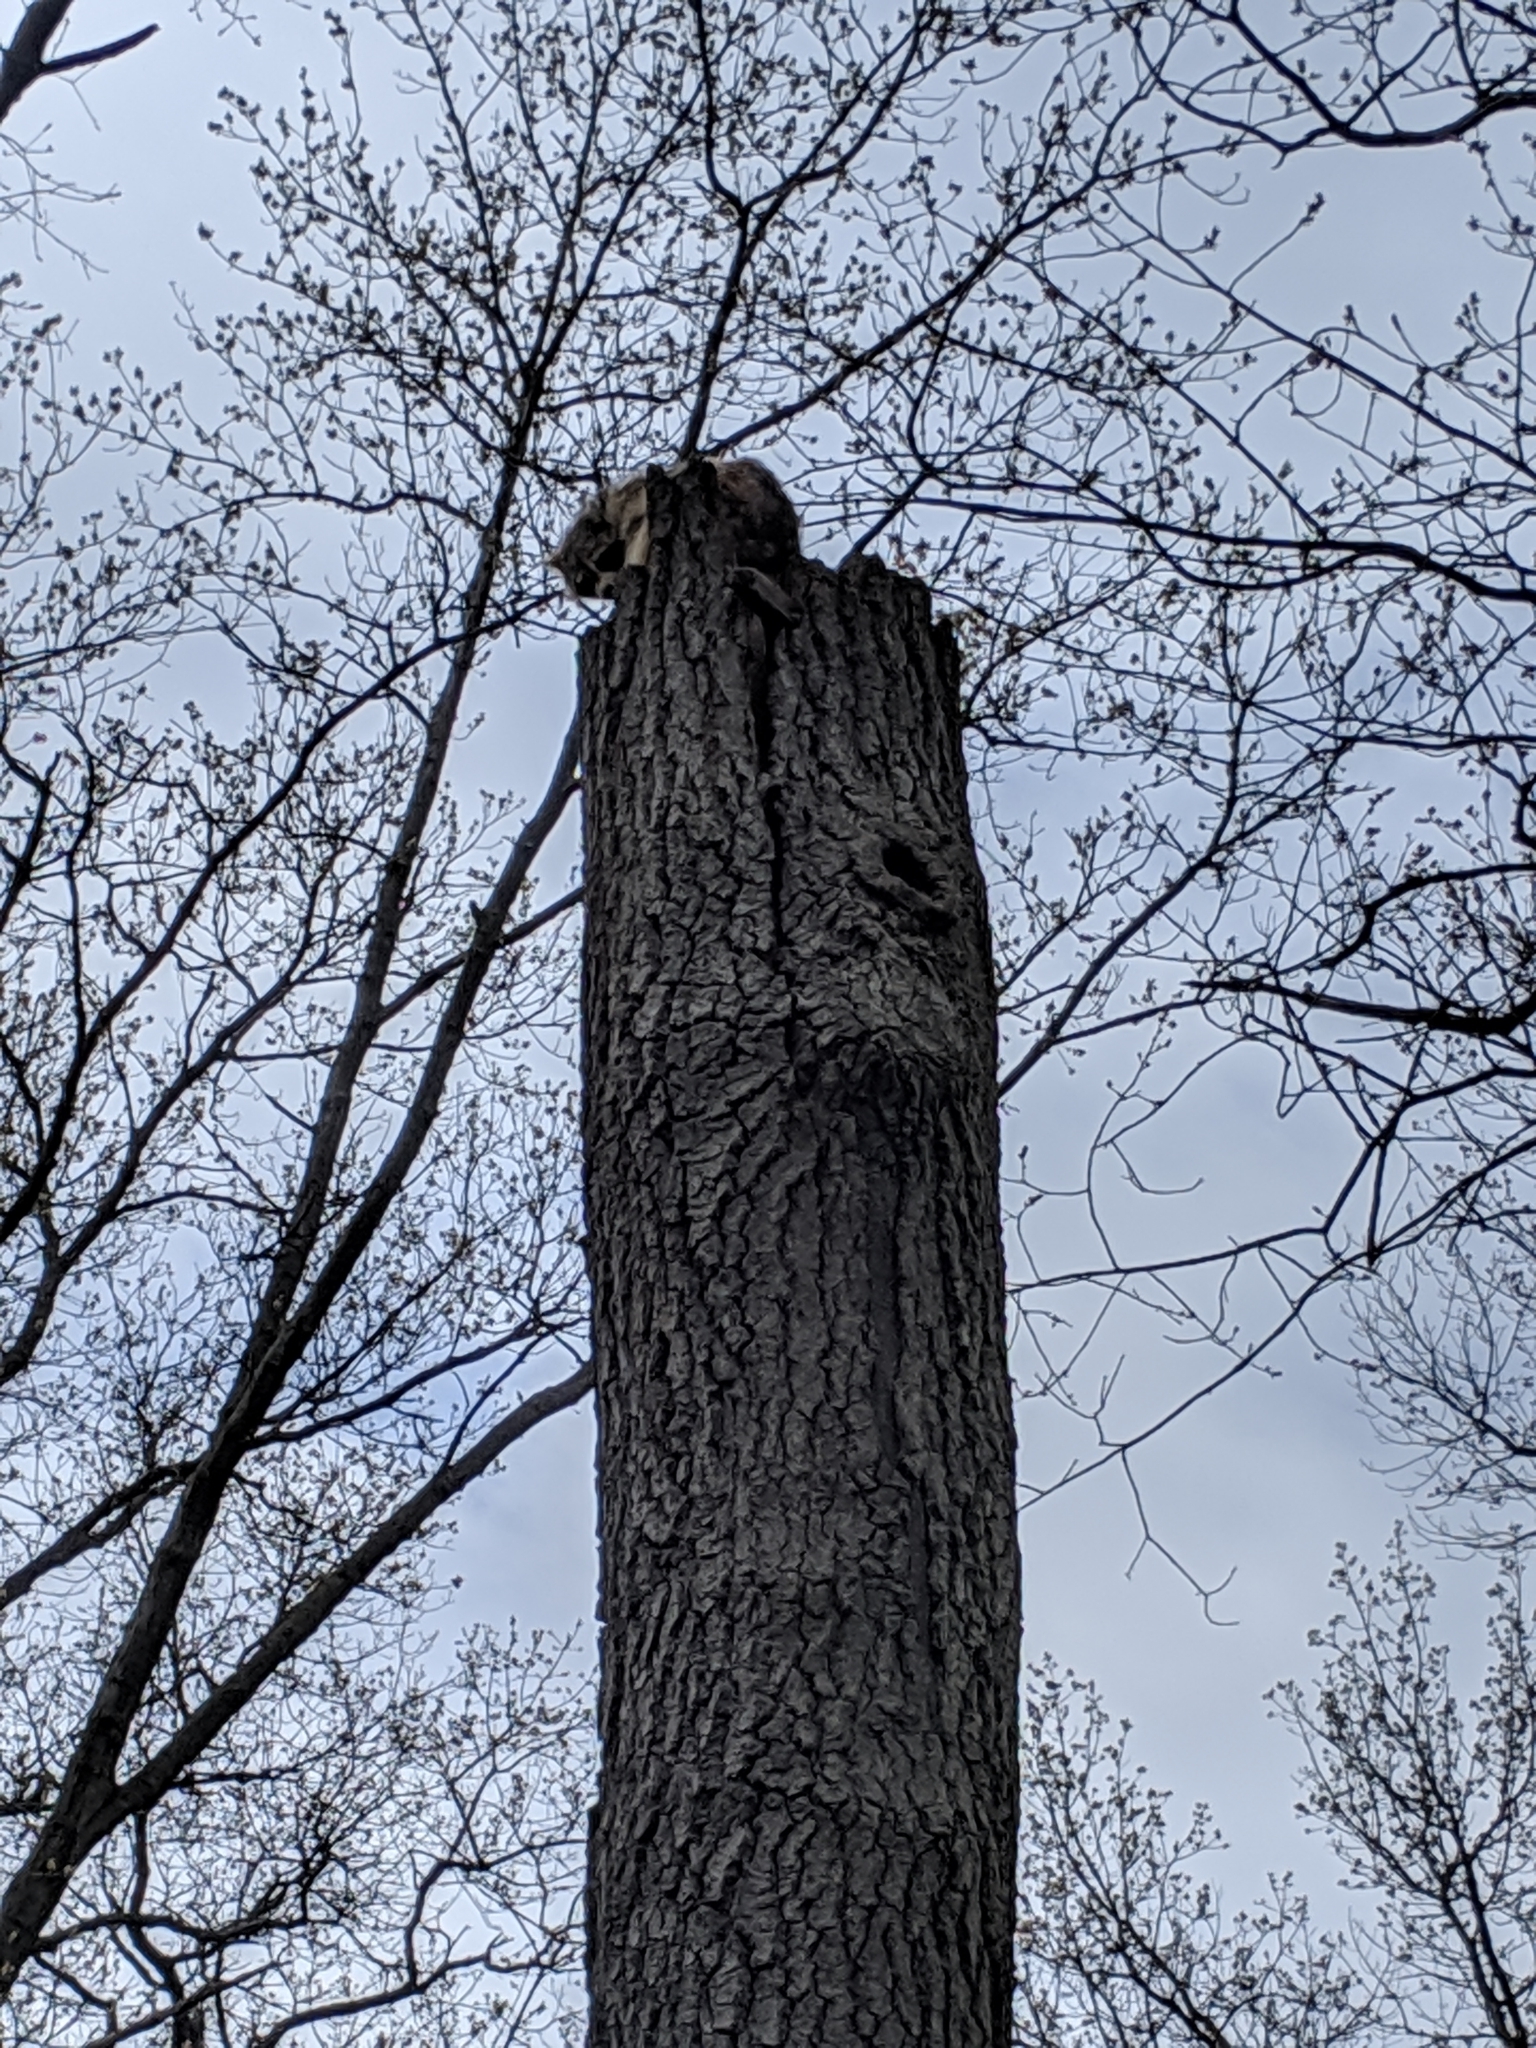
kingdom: Animalia
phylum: Chordata
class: Mammalia
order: Carnivora
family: Procyonidae
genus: Procyon
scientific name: Procyon lotor
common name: Raccoon
